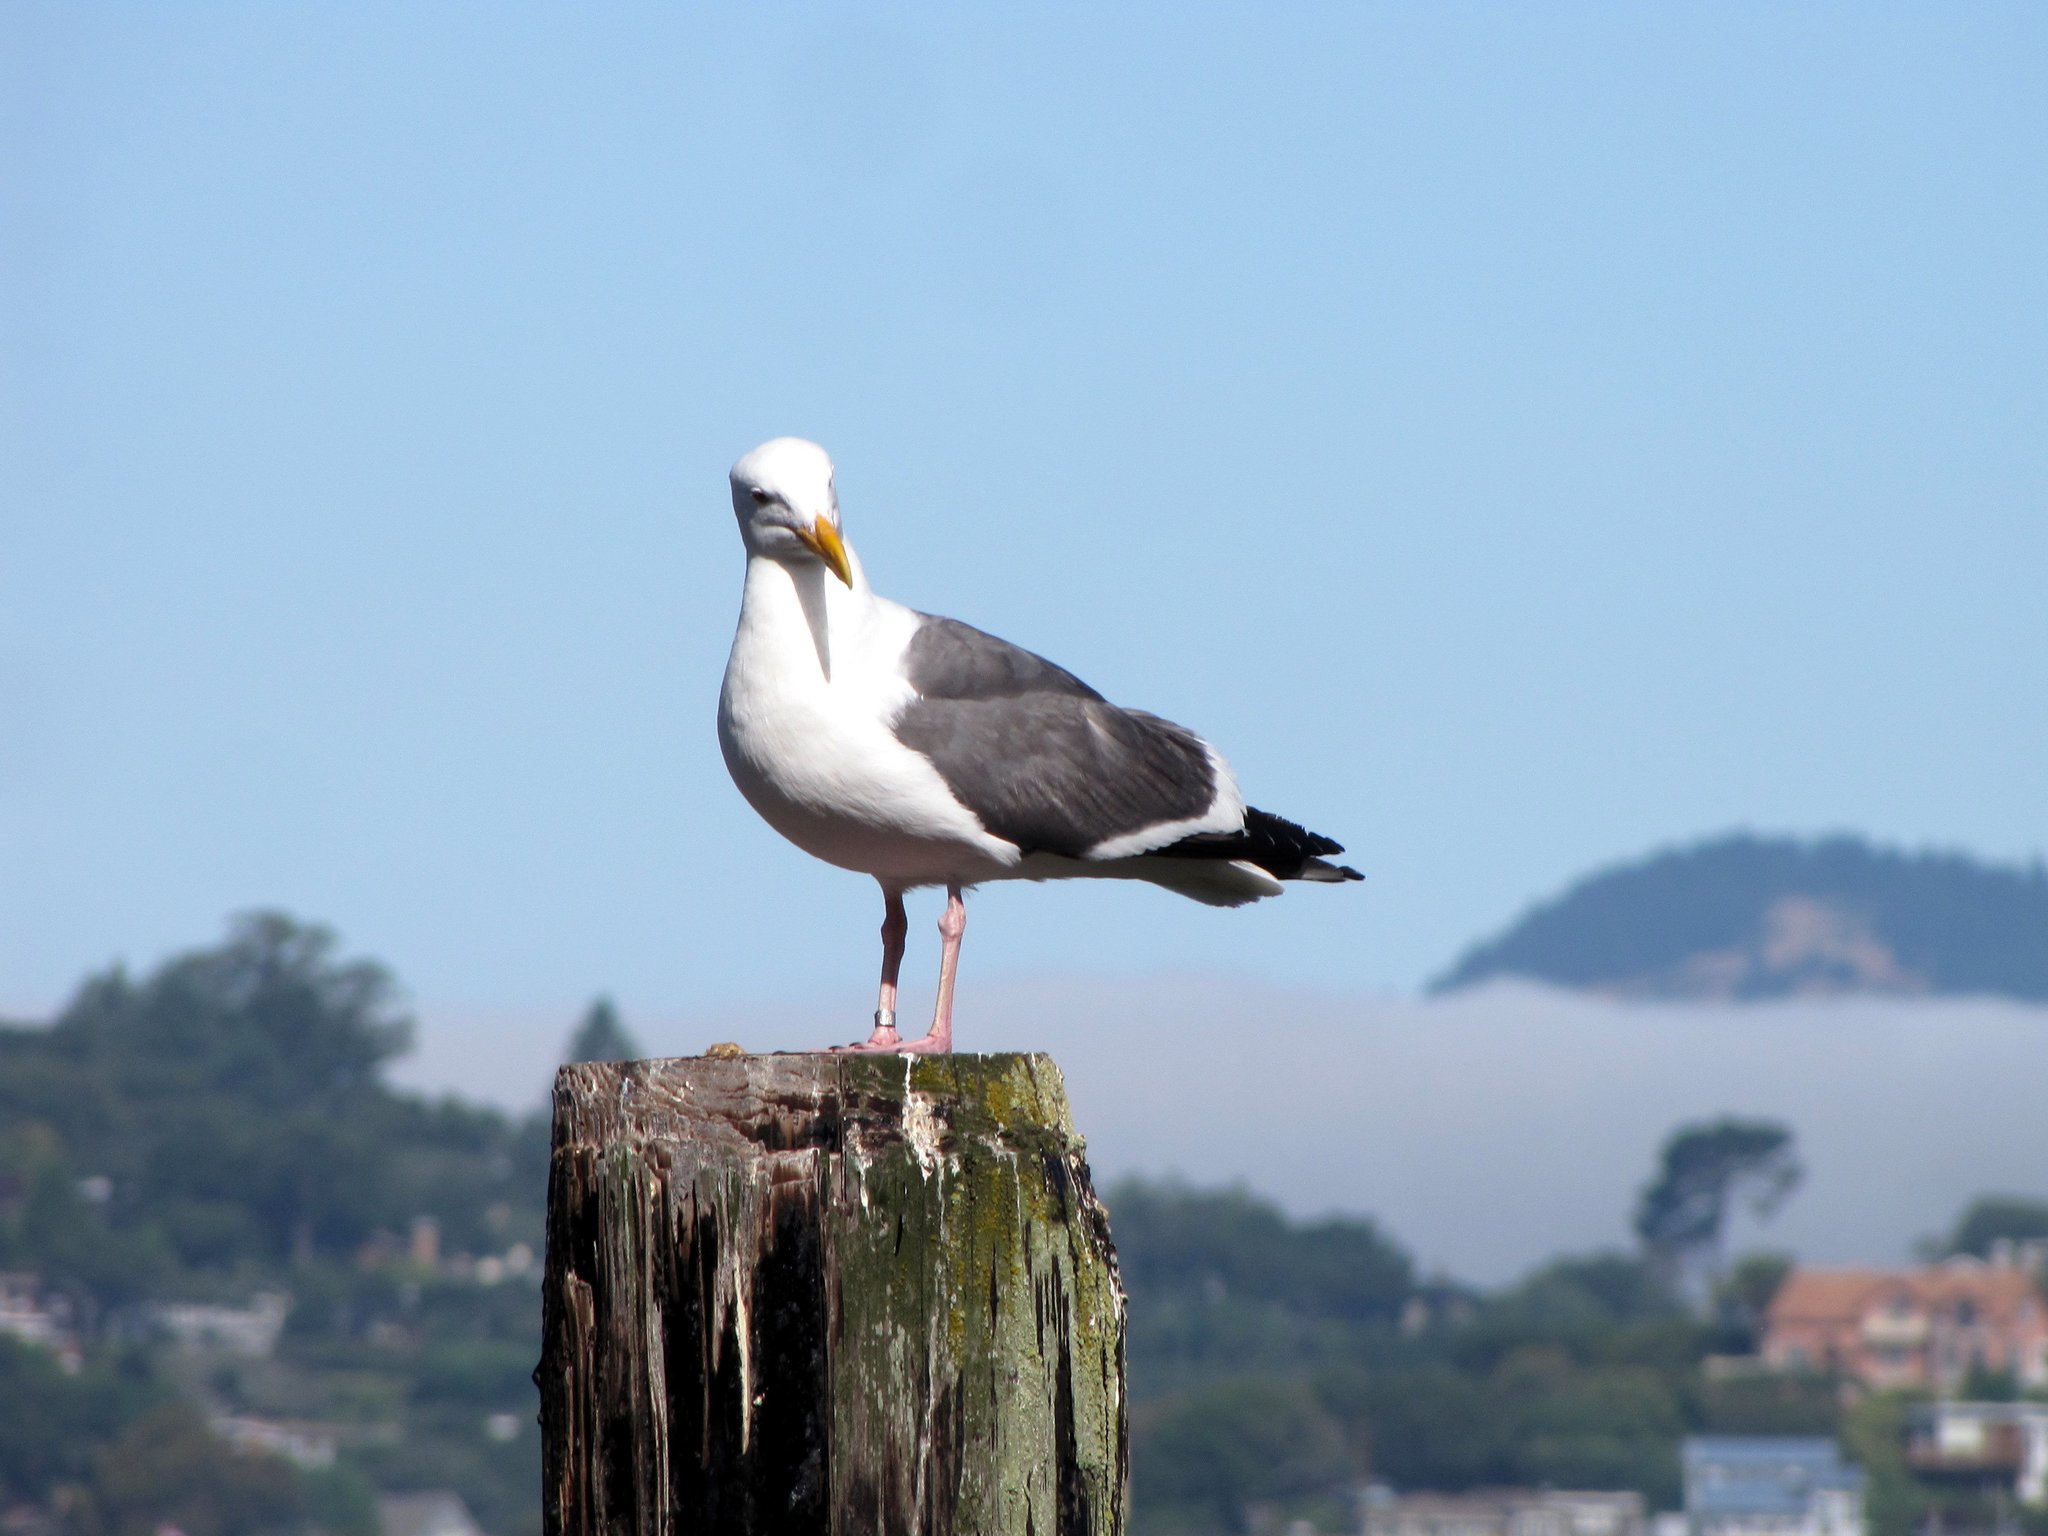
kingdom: Animalia
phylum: Chordata
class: Aves
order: Charadriiformes
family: Laridae
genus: Larus
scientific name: Larus occidentalis
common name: Western gull
